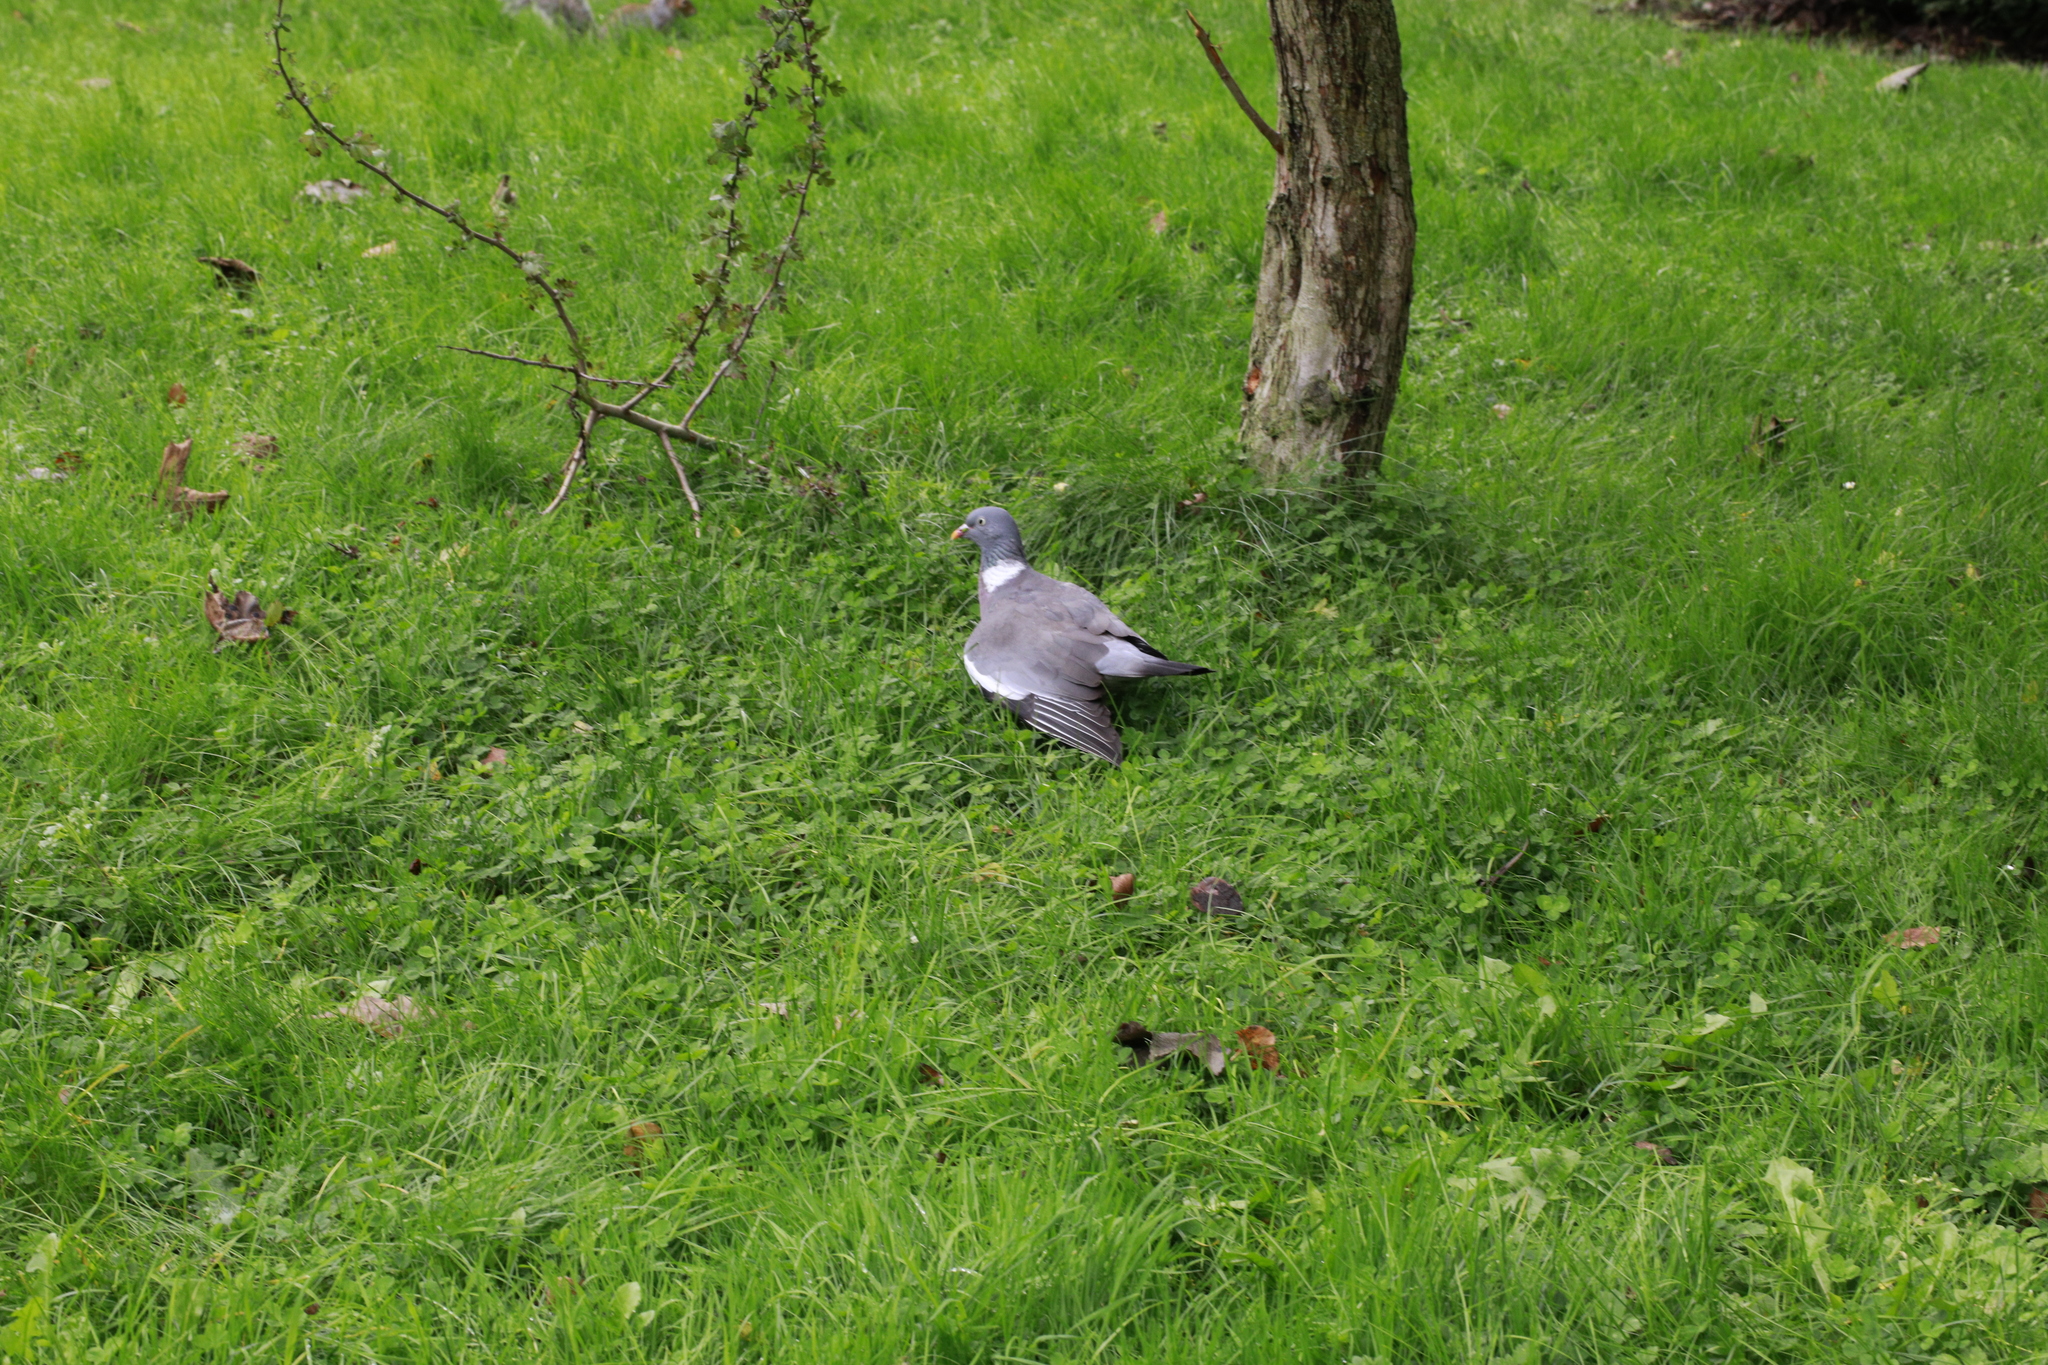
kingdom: Animalia
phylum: Chordata
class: Aves
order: Columbiformes
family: Columbidae
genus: Columba
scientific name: Columba palumbus
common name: Common wood pigeon
